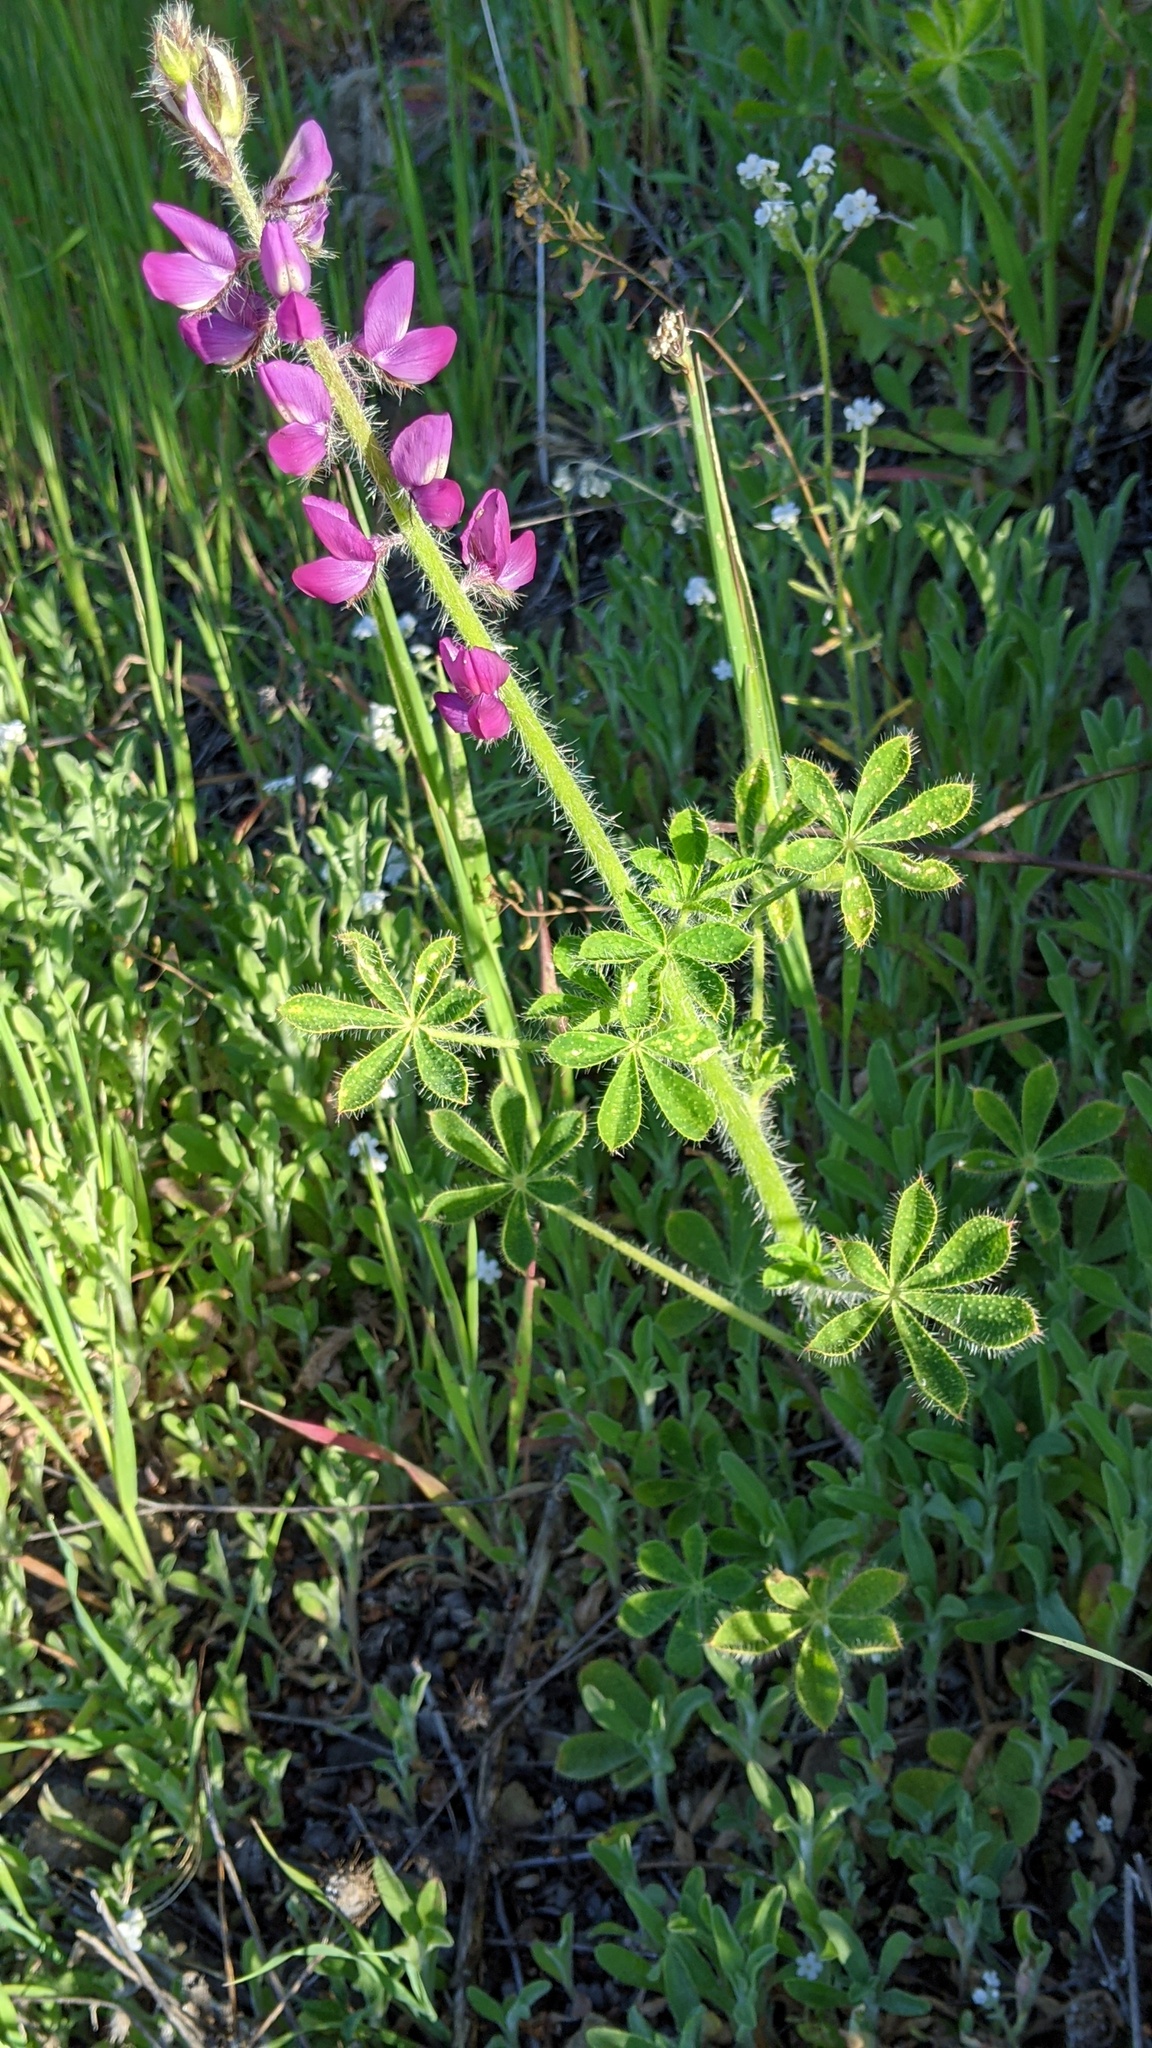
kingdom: Plantae
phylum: Tracheophyta
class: Magnoliopsida
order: Fabales
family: Fabaceae
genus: Lupinus
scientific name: Lupinus hirsutissimus
